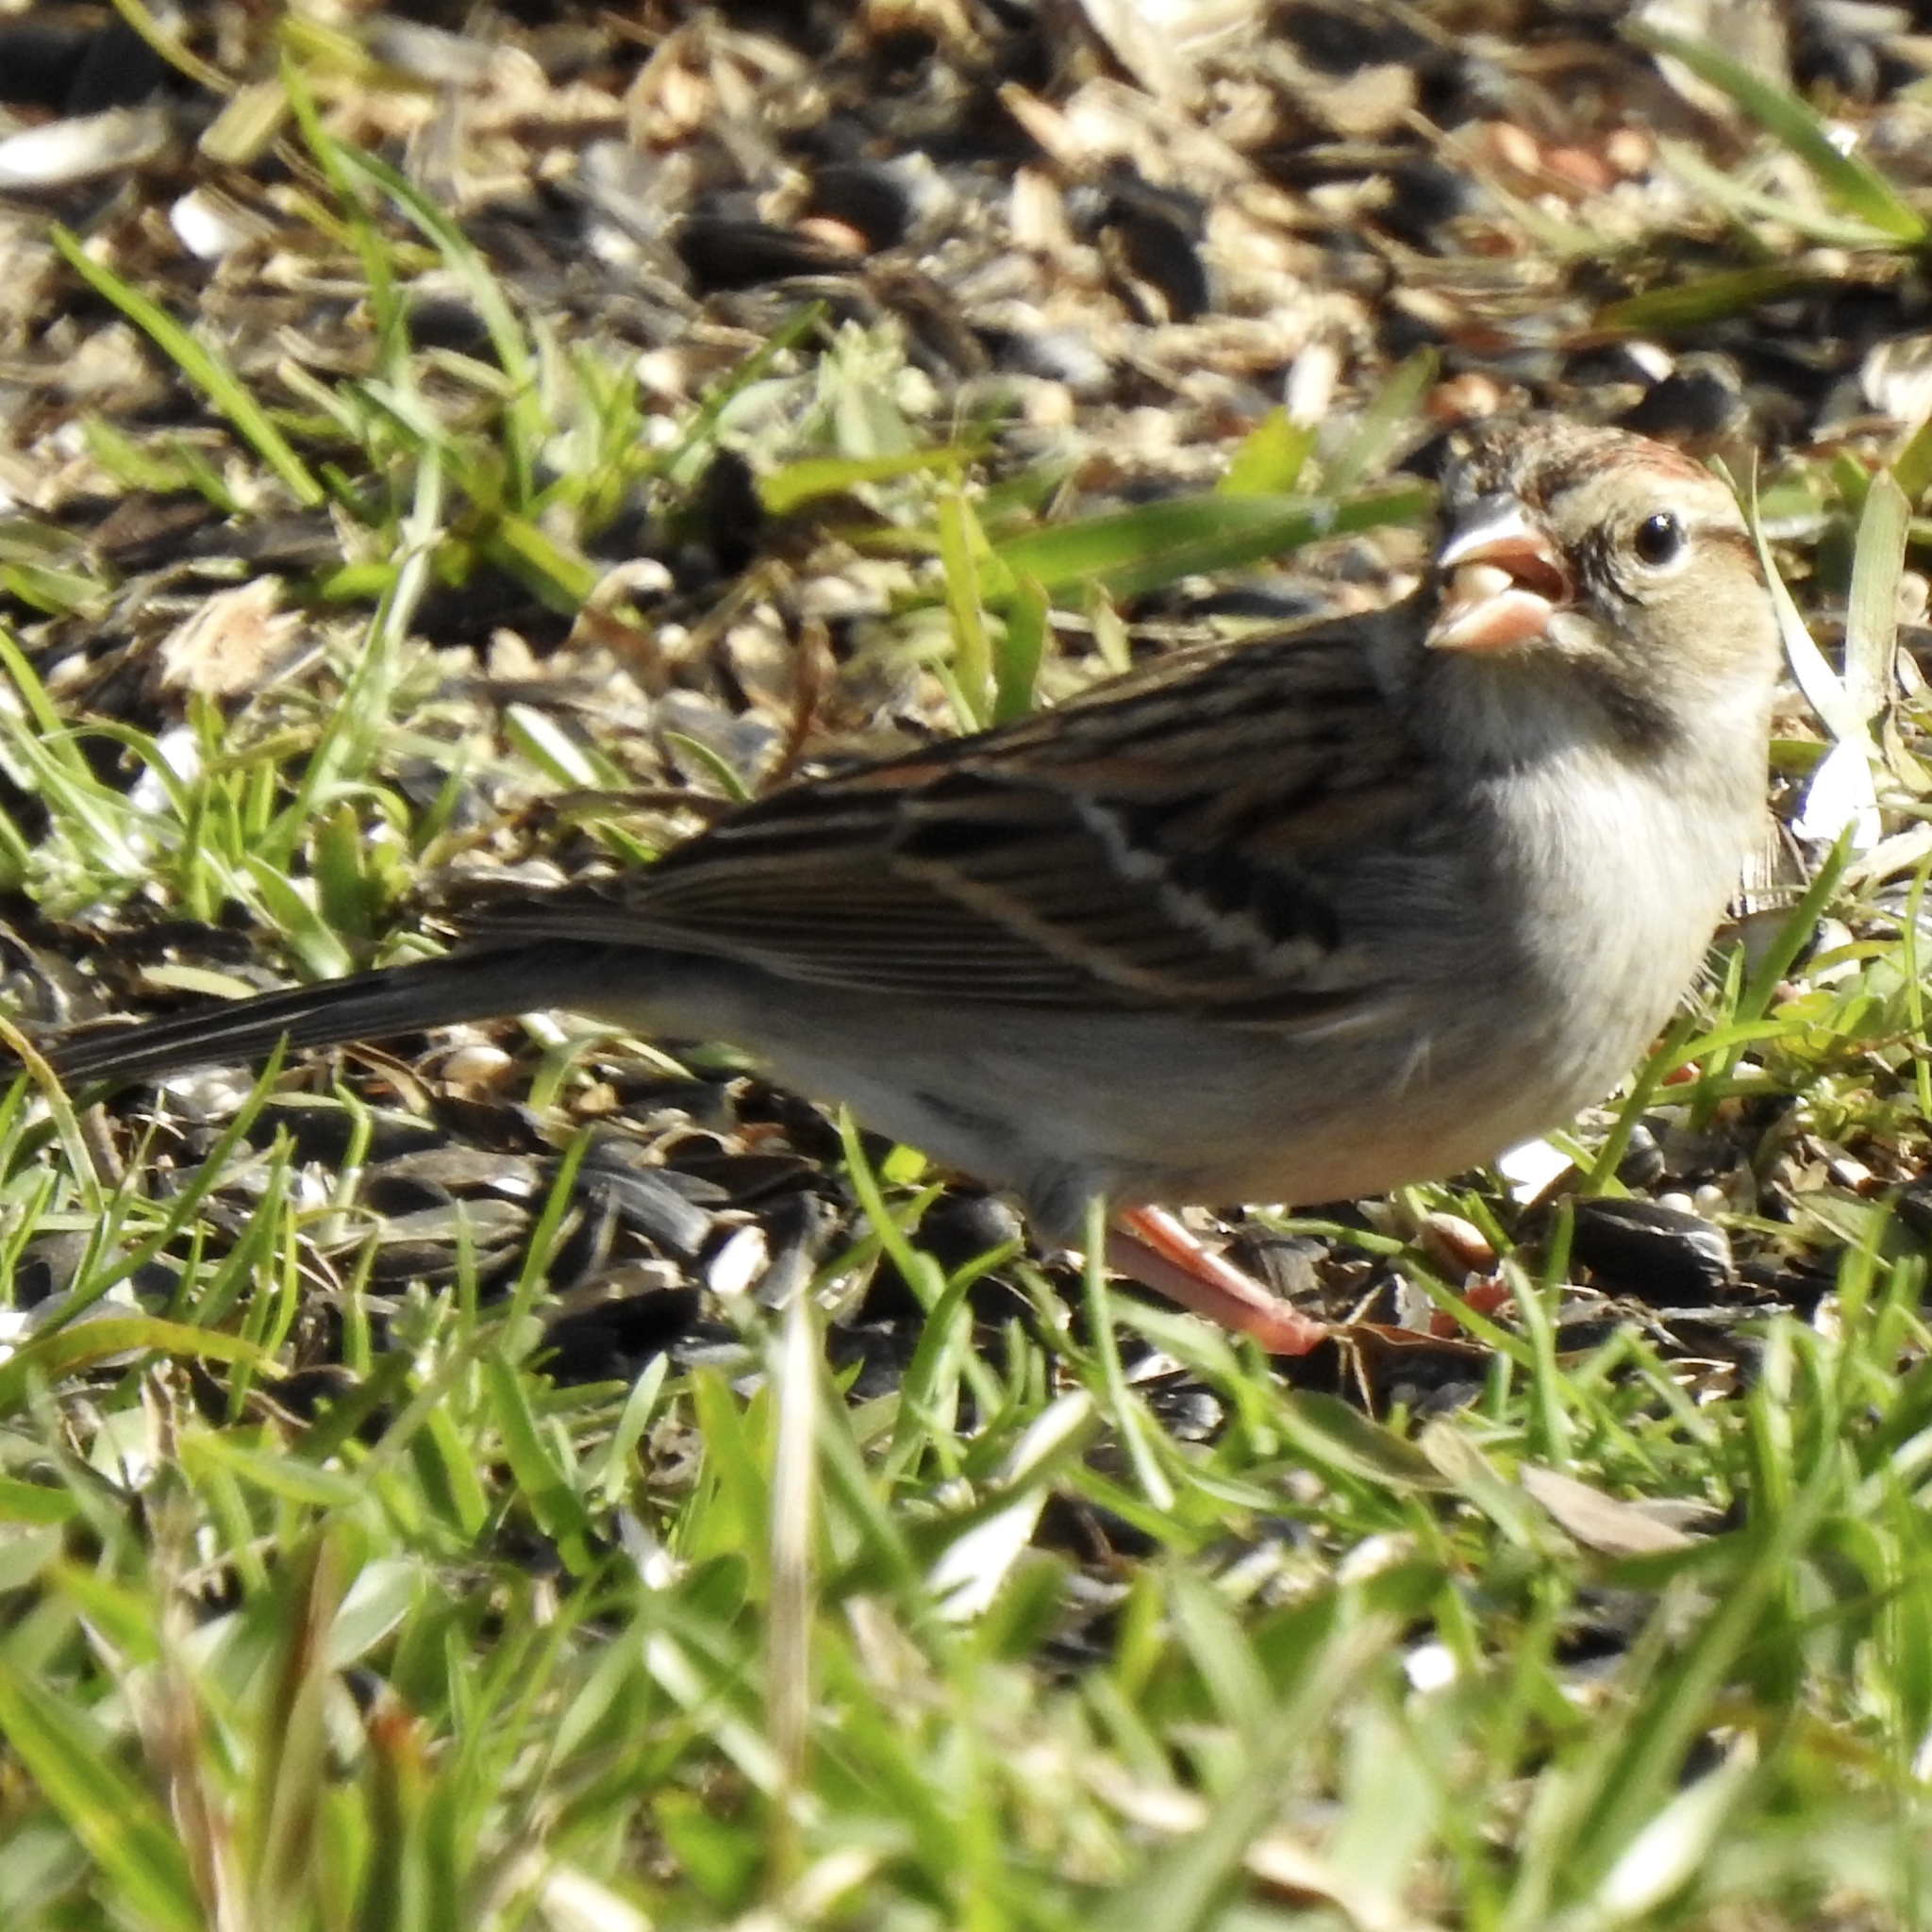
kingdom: Animalia
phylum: Chordata
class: Aves
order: Passeriformes
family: Passerellidae
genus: Spizella
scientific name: Spizella passerina
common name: Chipping sparrow
